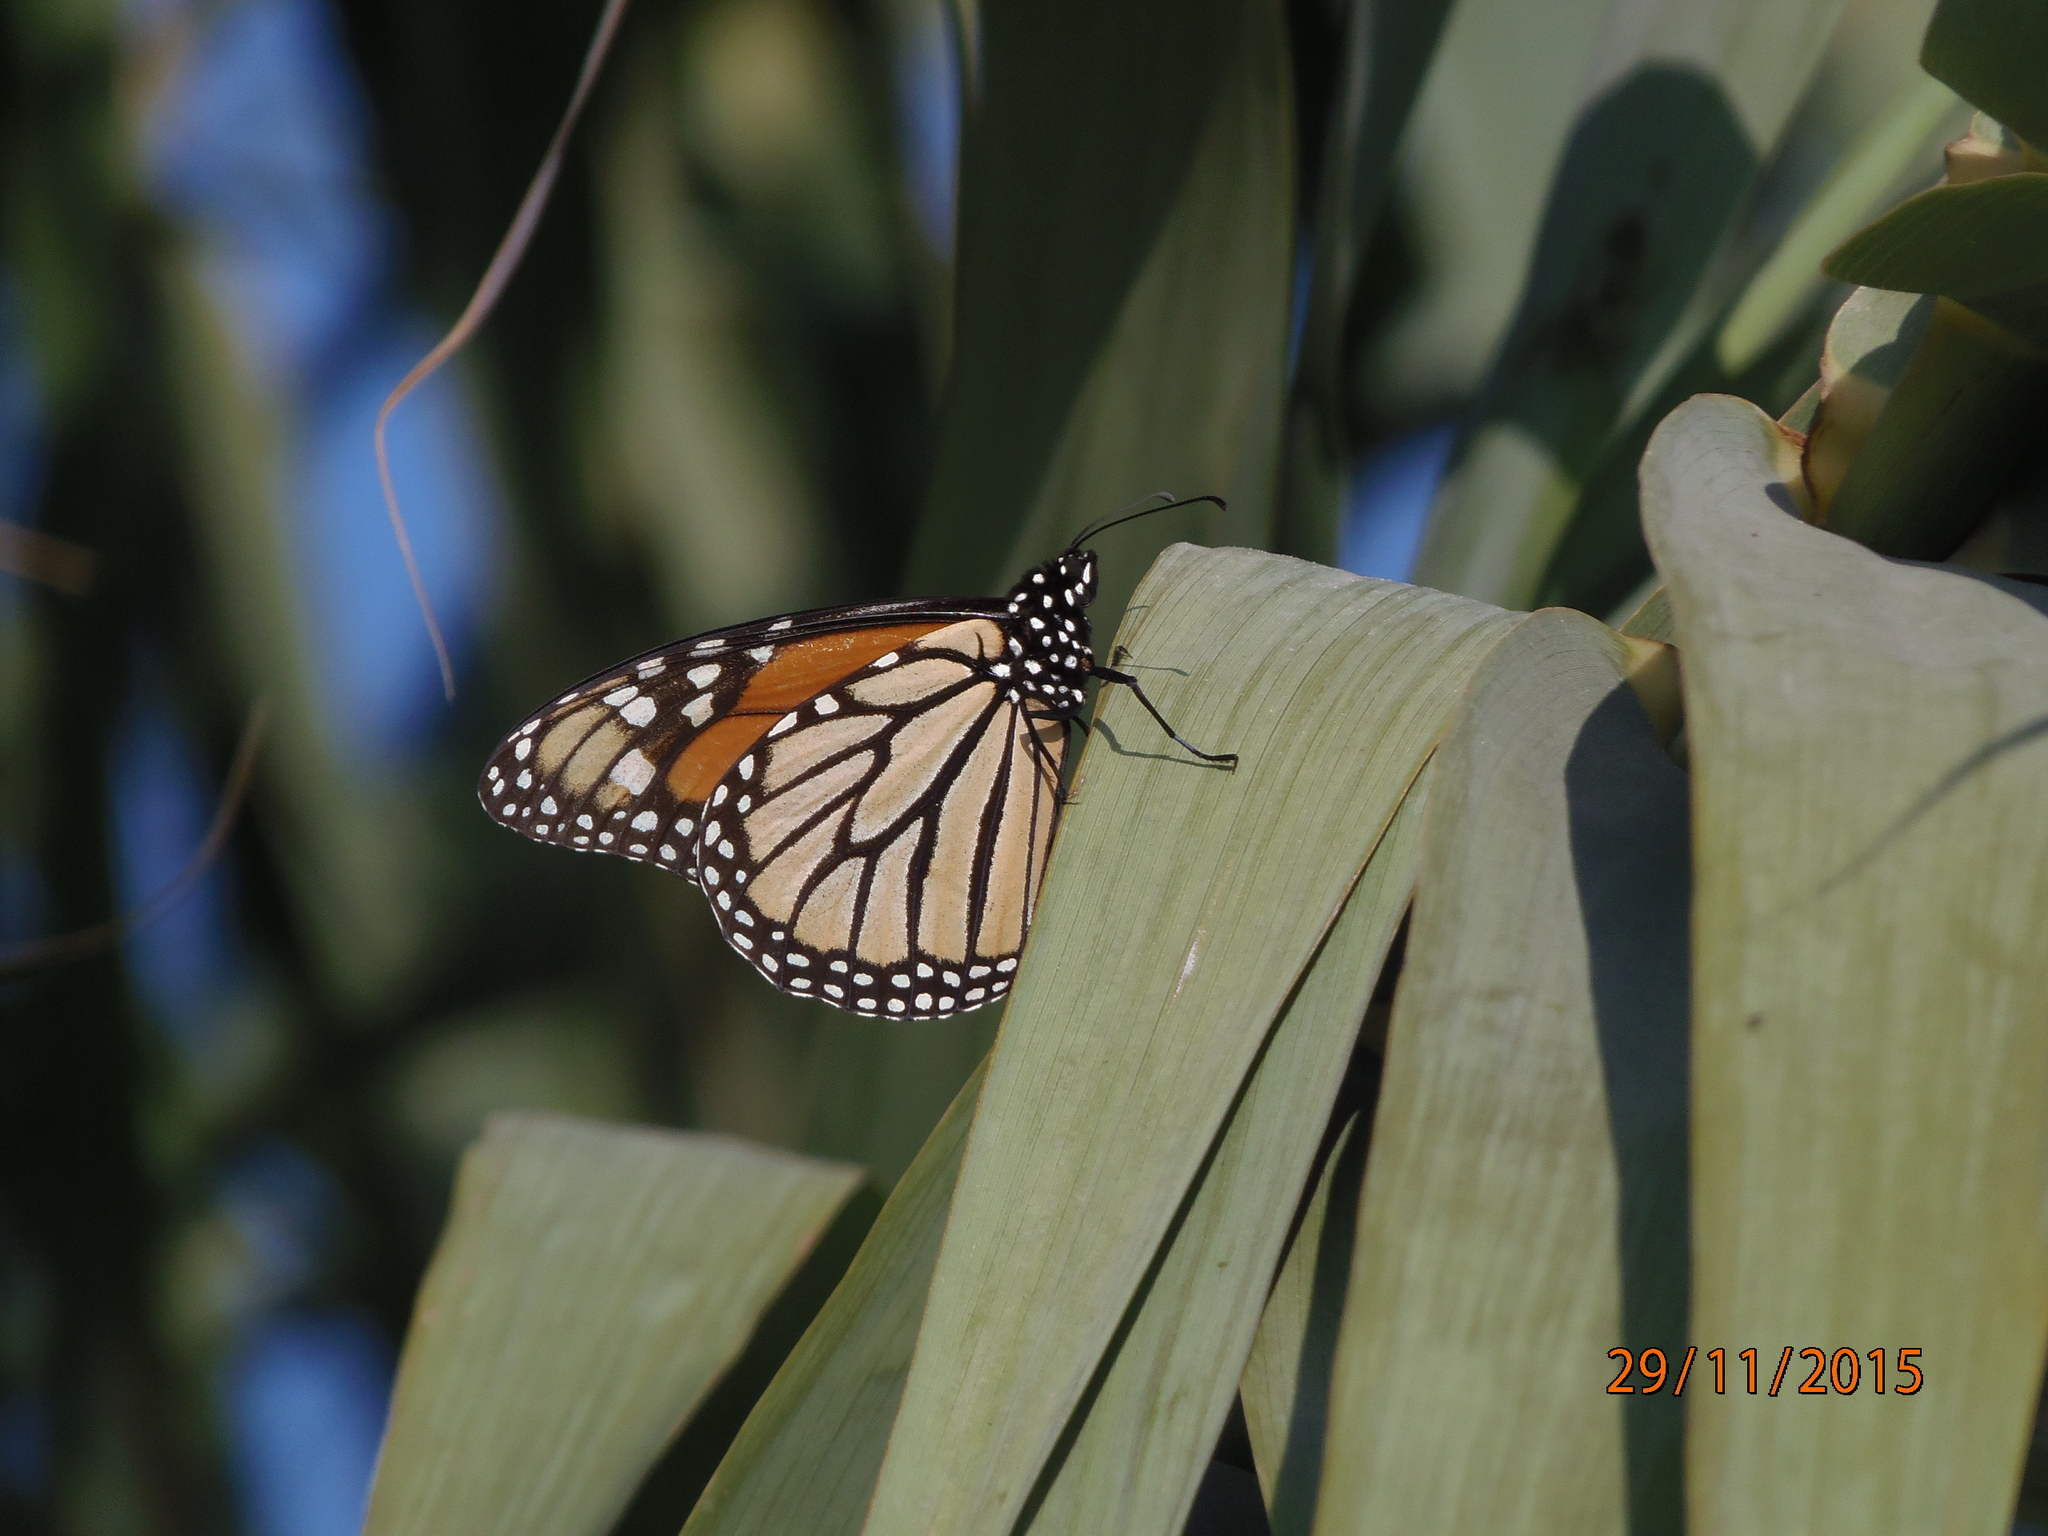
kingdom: Animalia
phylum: Arthropoda
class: Insecta
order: Lepidoptera
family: Nymphalidae
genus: Danaus
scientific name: Danaus plexippus
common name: Monarch
